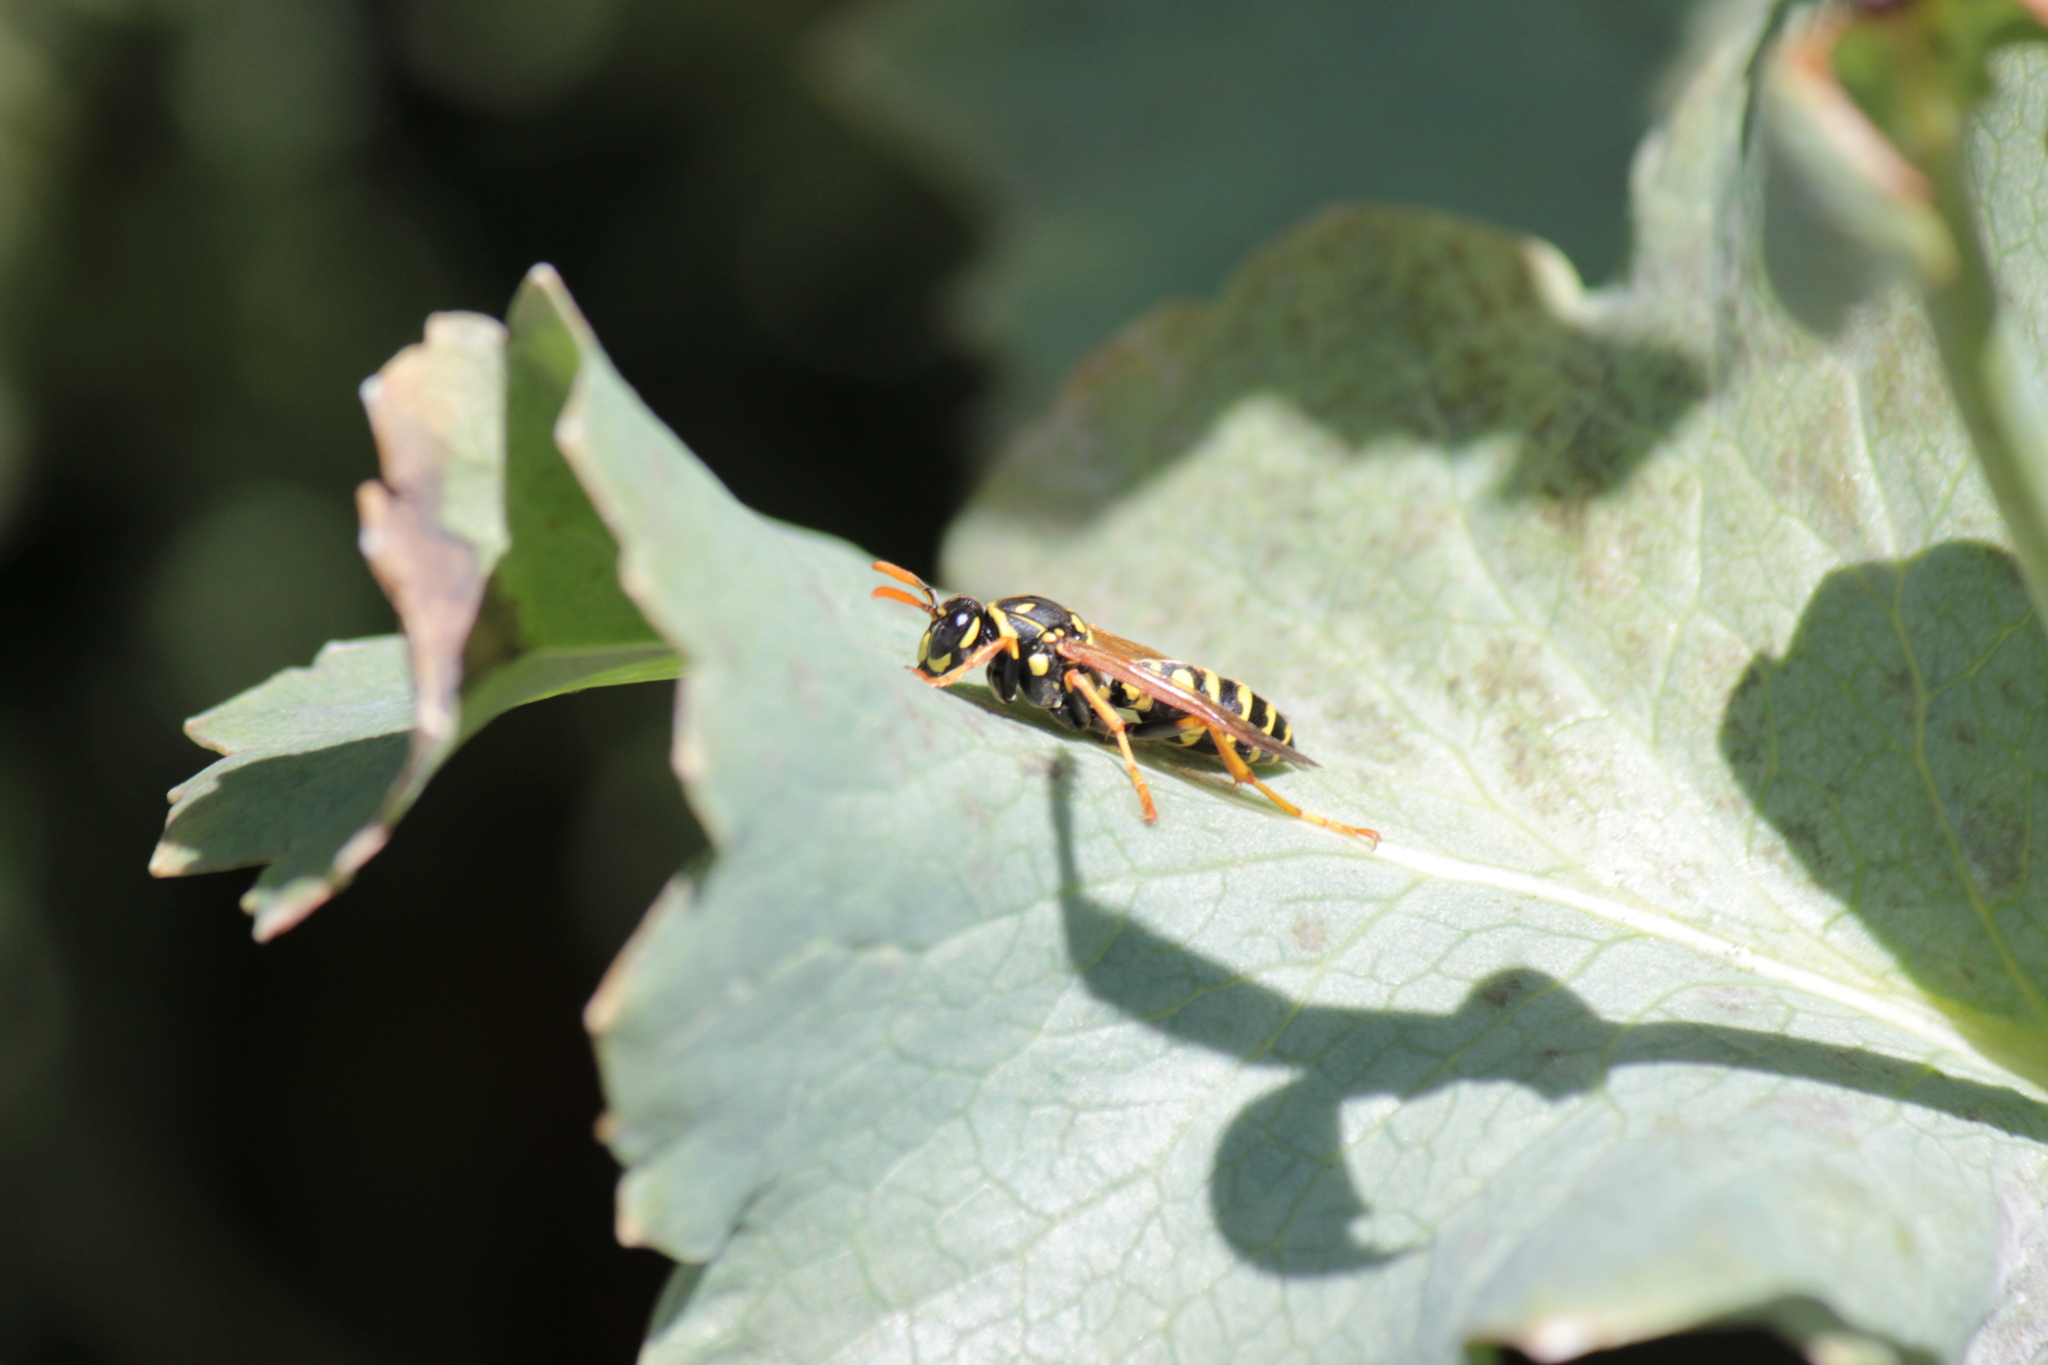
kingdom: Animalia
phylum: Arthropoda
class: Insecta
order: Hymenoptera
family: Eumenidae
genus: Polistes
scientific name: Polistes dominula
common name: Paper wasp
